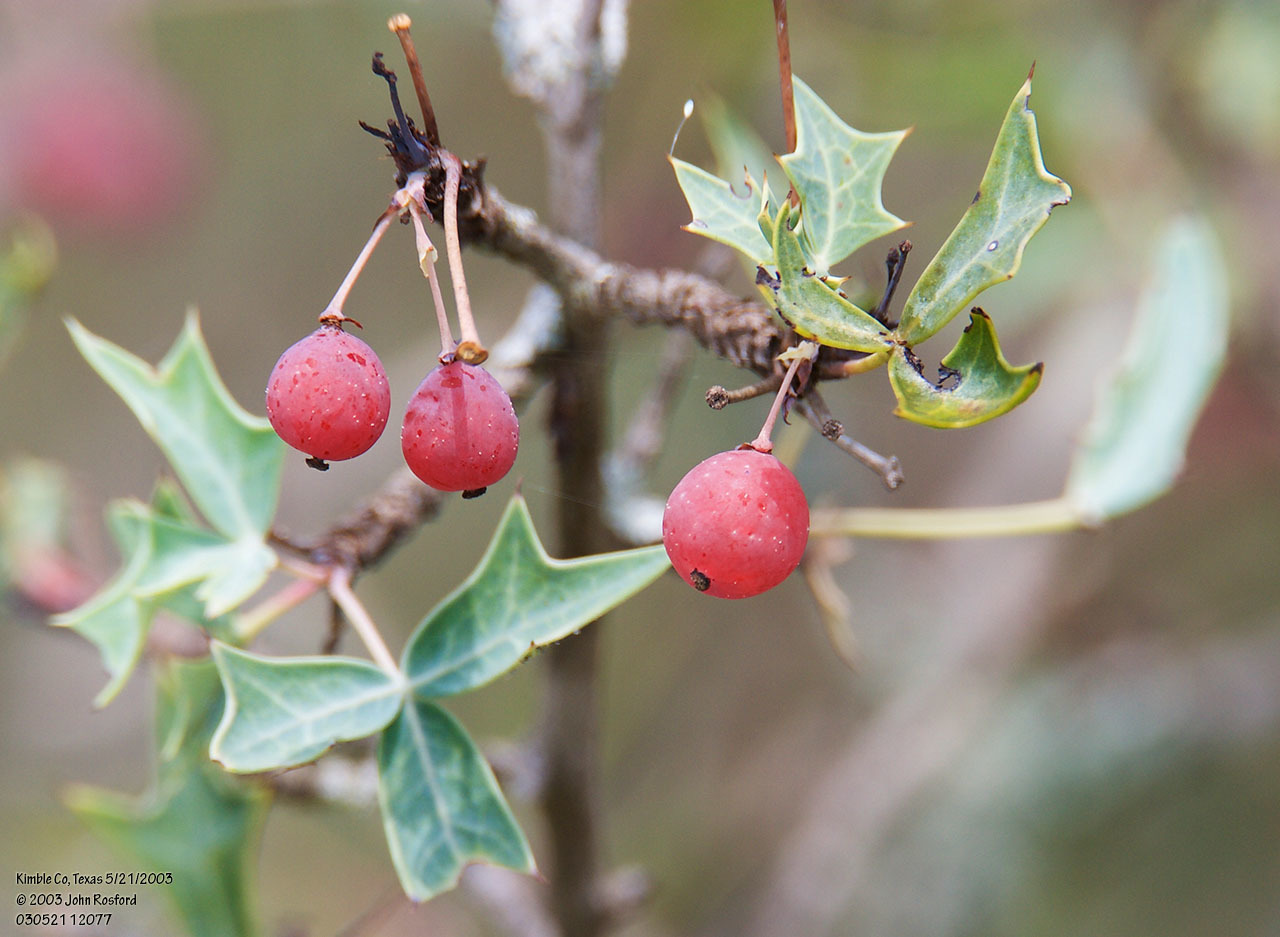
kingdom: Plantae
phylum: Tracheophyta
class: Magnoliopsida
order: Ranunculales
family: Berberidaceae
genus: Alloberberis
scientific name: Alloberberis trifoliolata
